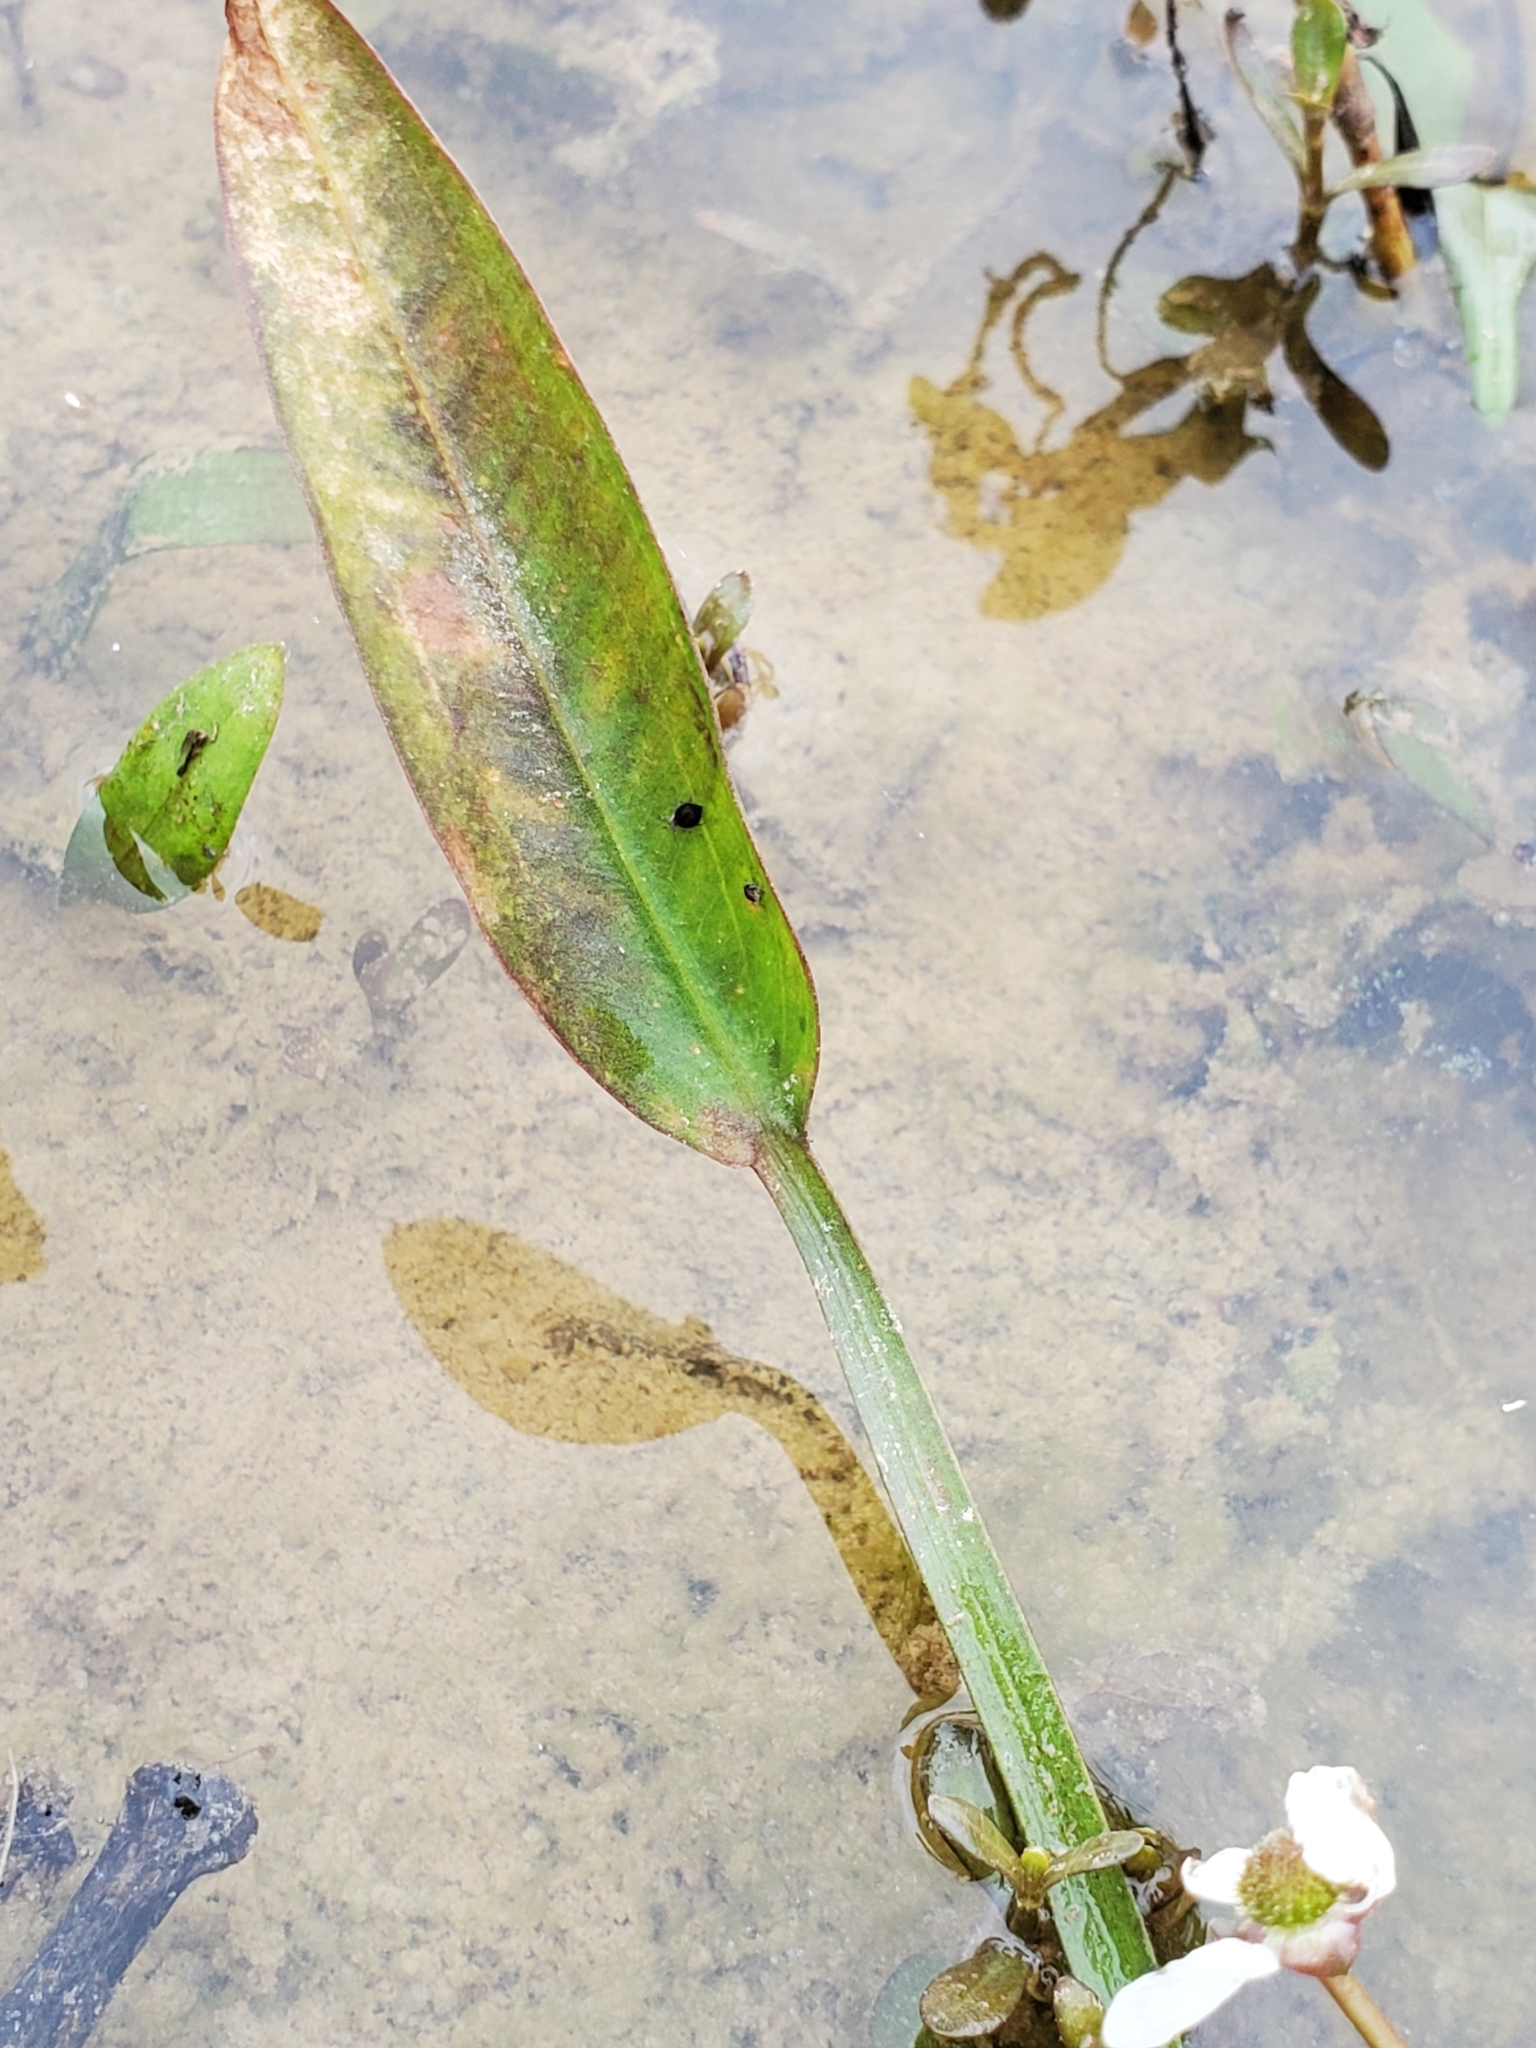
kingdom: Plantae
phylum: Tracheophyta
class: Liliopsida
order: Alismatales
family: Alismataceae
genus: Sagittaria
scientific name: Sagittaria platyphylla
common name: Broad-leaf arrowhead
